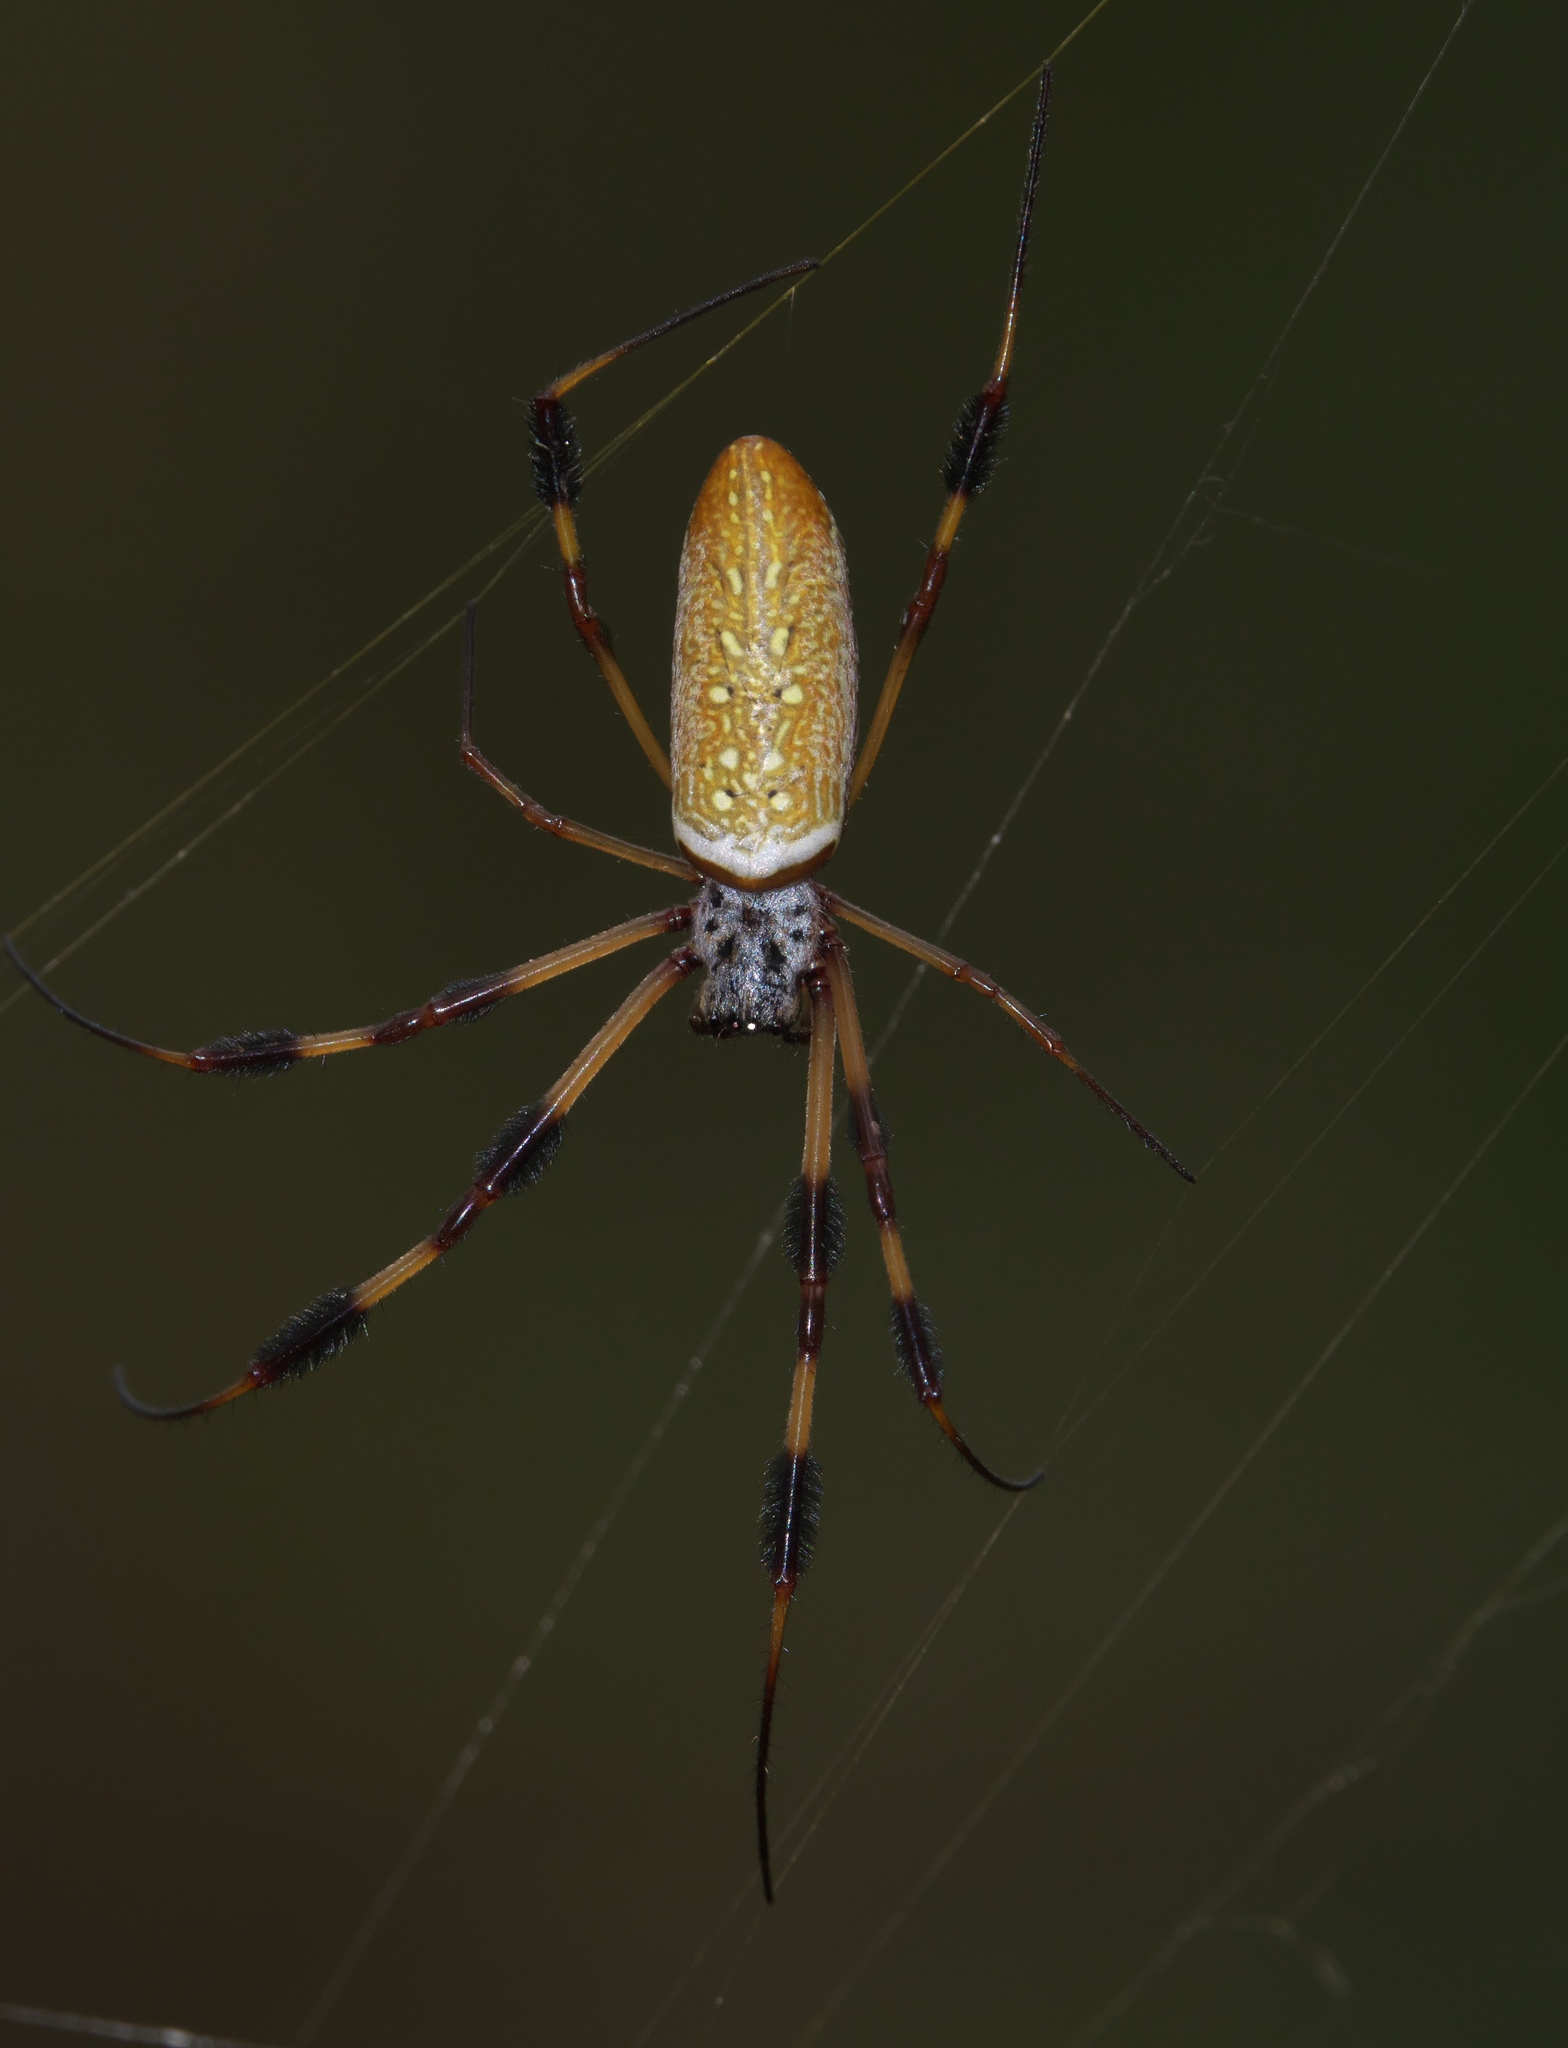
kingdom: Animalia
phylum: Arthropoda
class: Arachnida
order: Araneae
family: Araneidae
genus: Trichonephila
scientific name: Trichonephila clavipes
